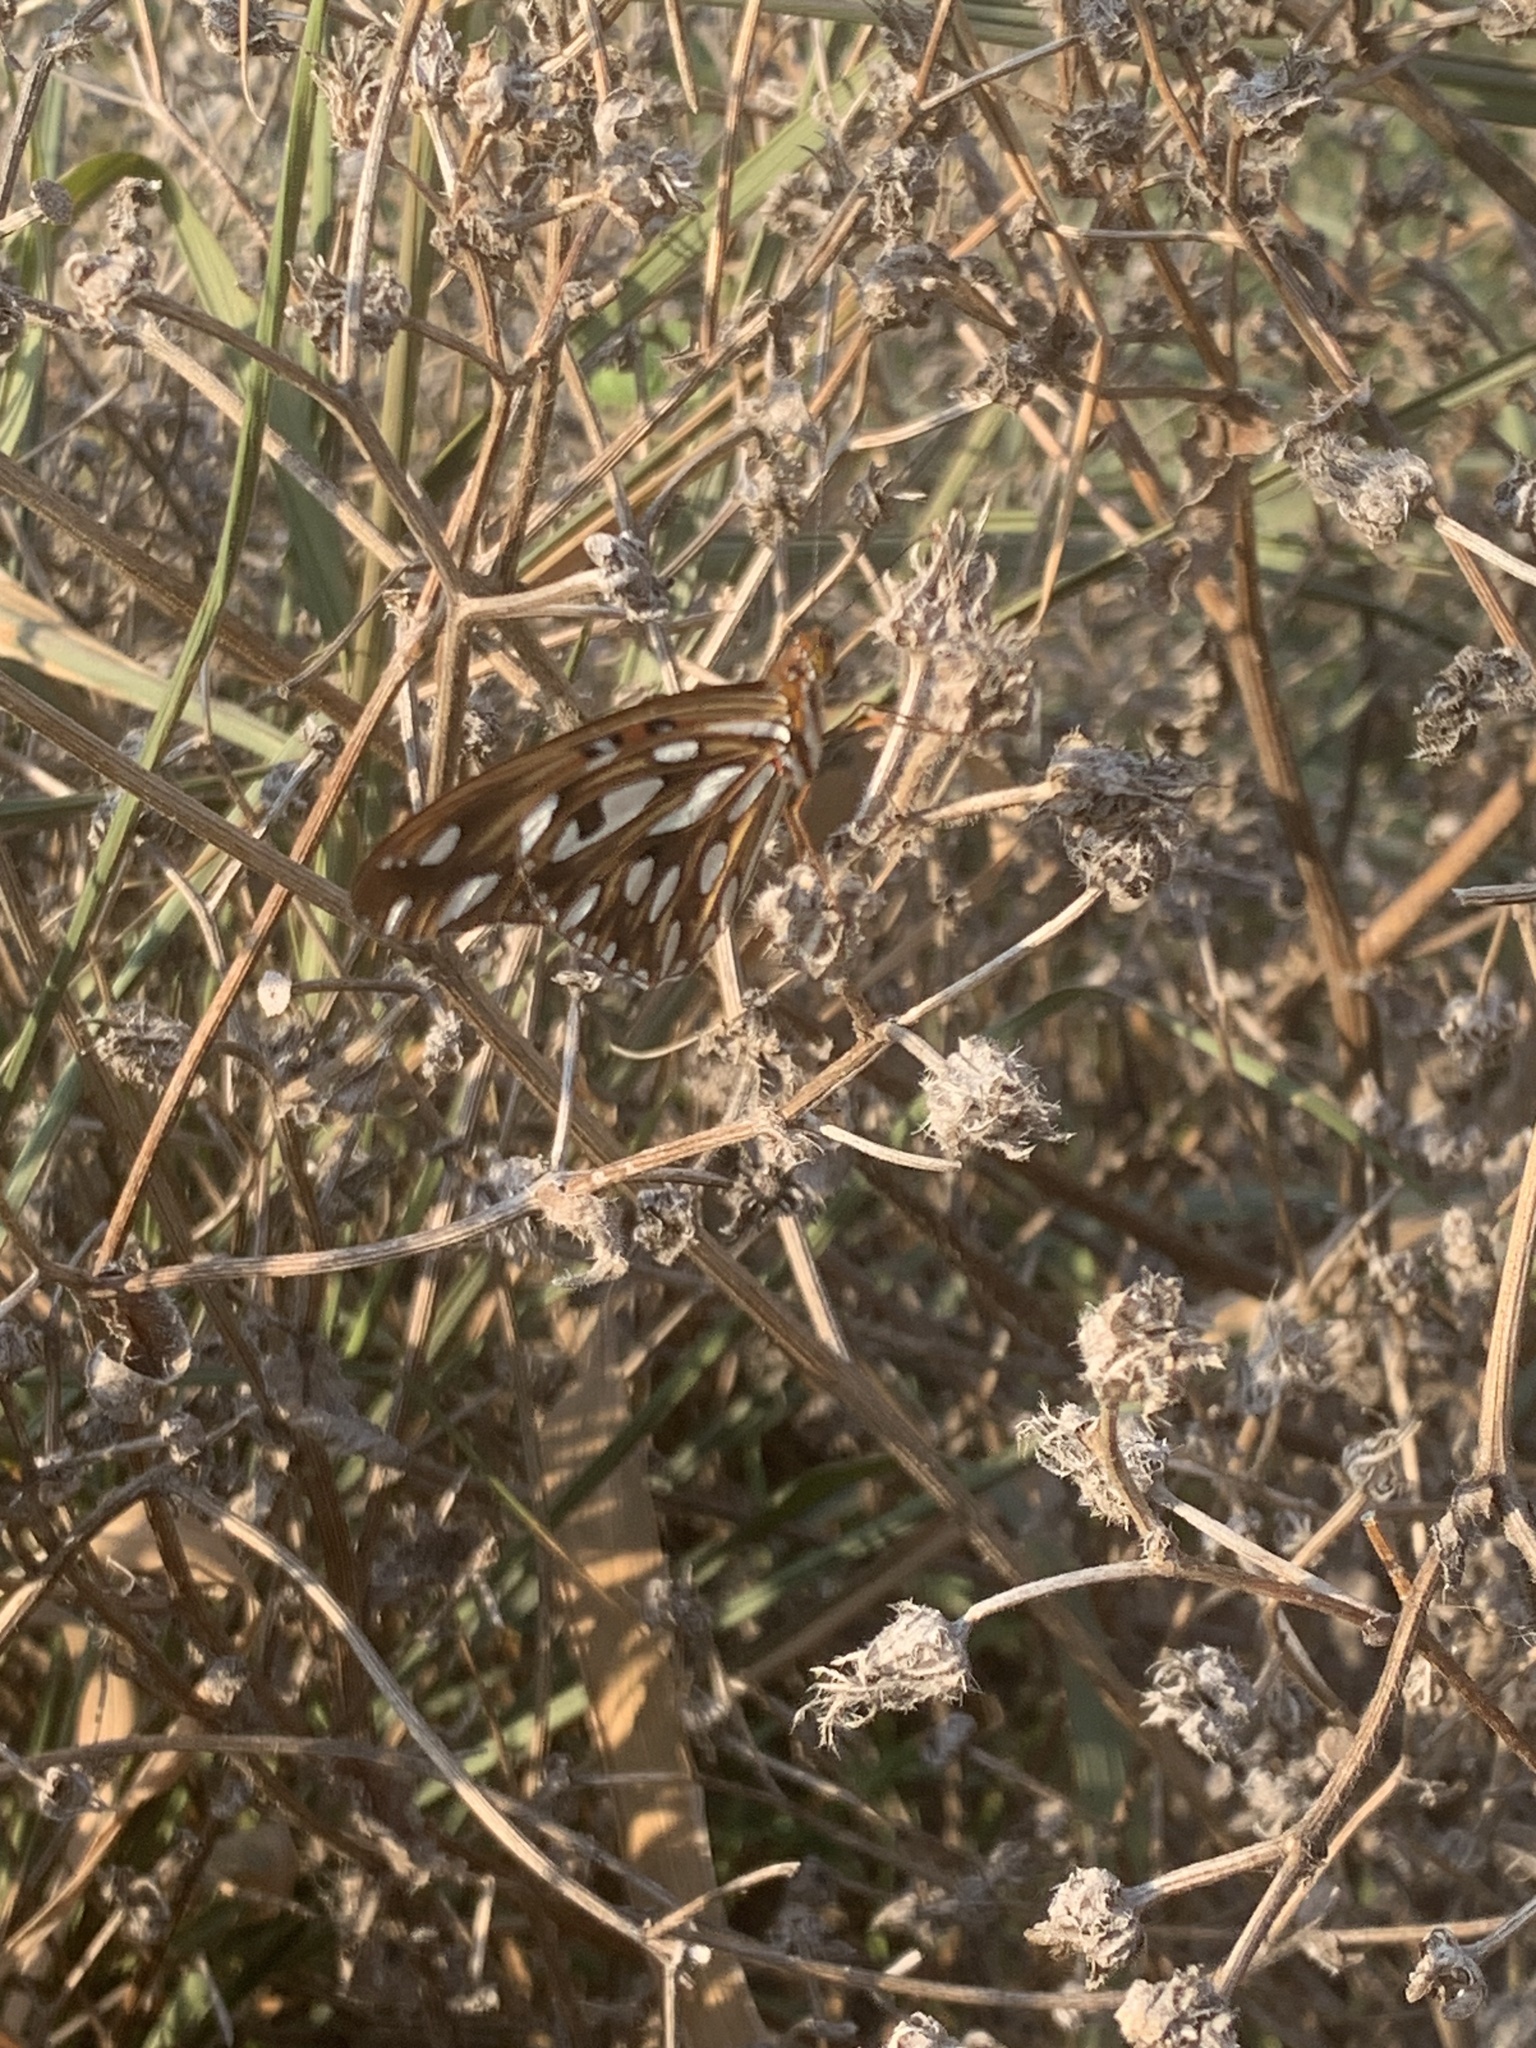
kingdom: Animalia
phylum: Arthropoda
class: Insecta
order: Lepidoptera
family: Nymphalidae
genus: Dione
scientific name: Dione vanillae
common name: Gulf fritillary
